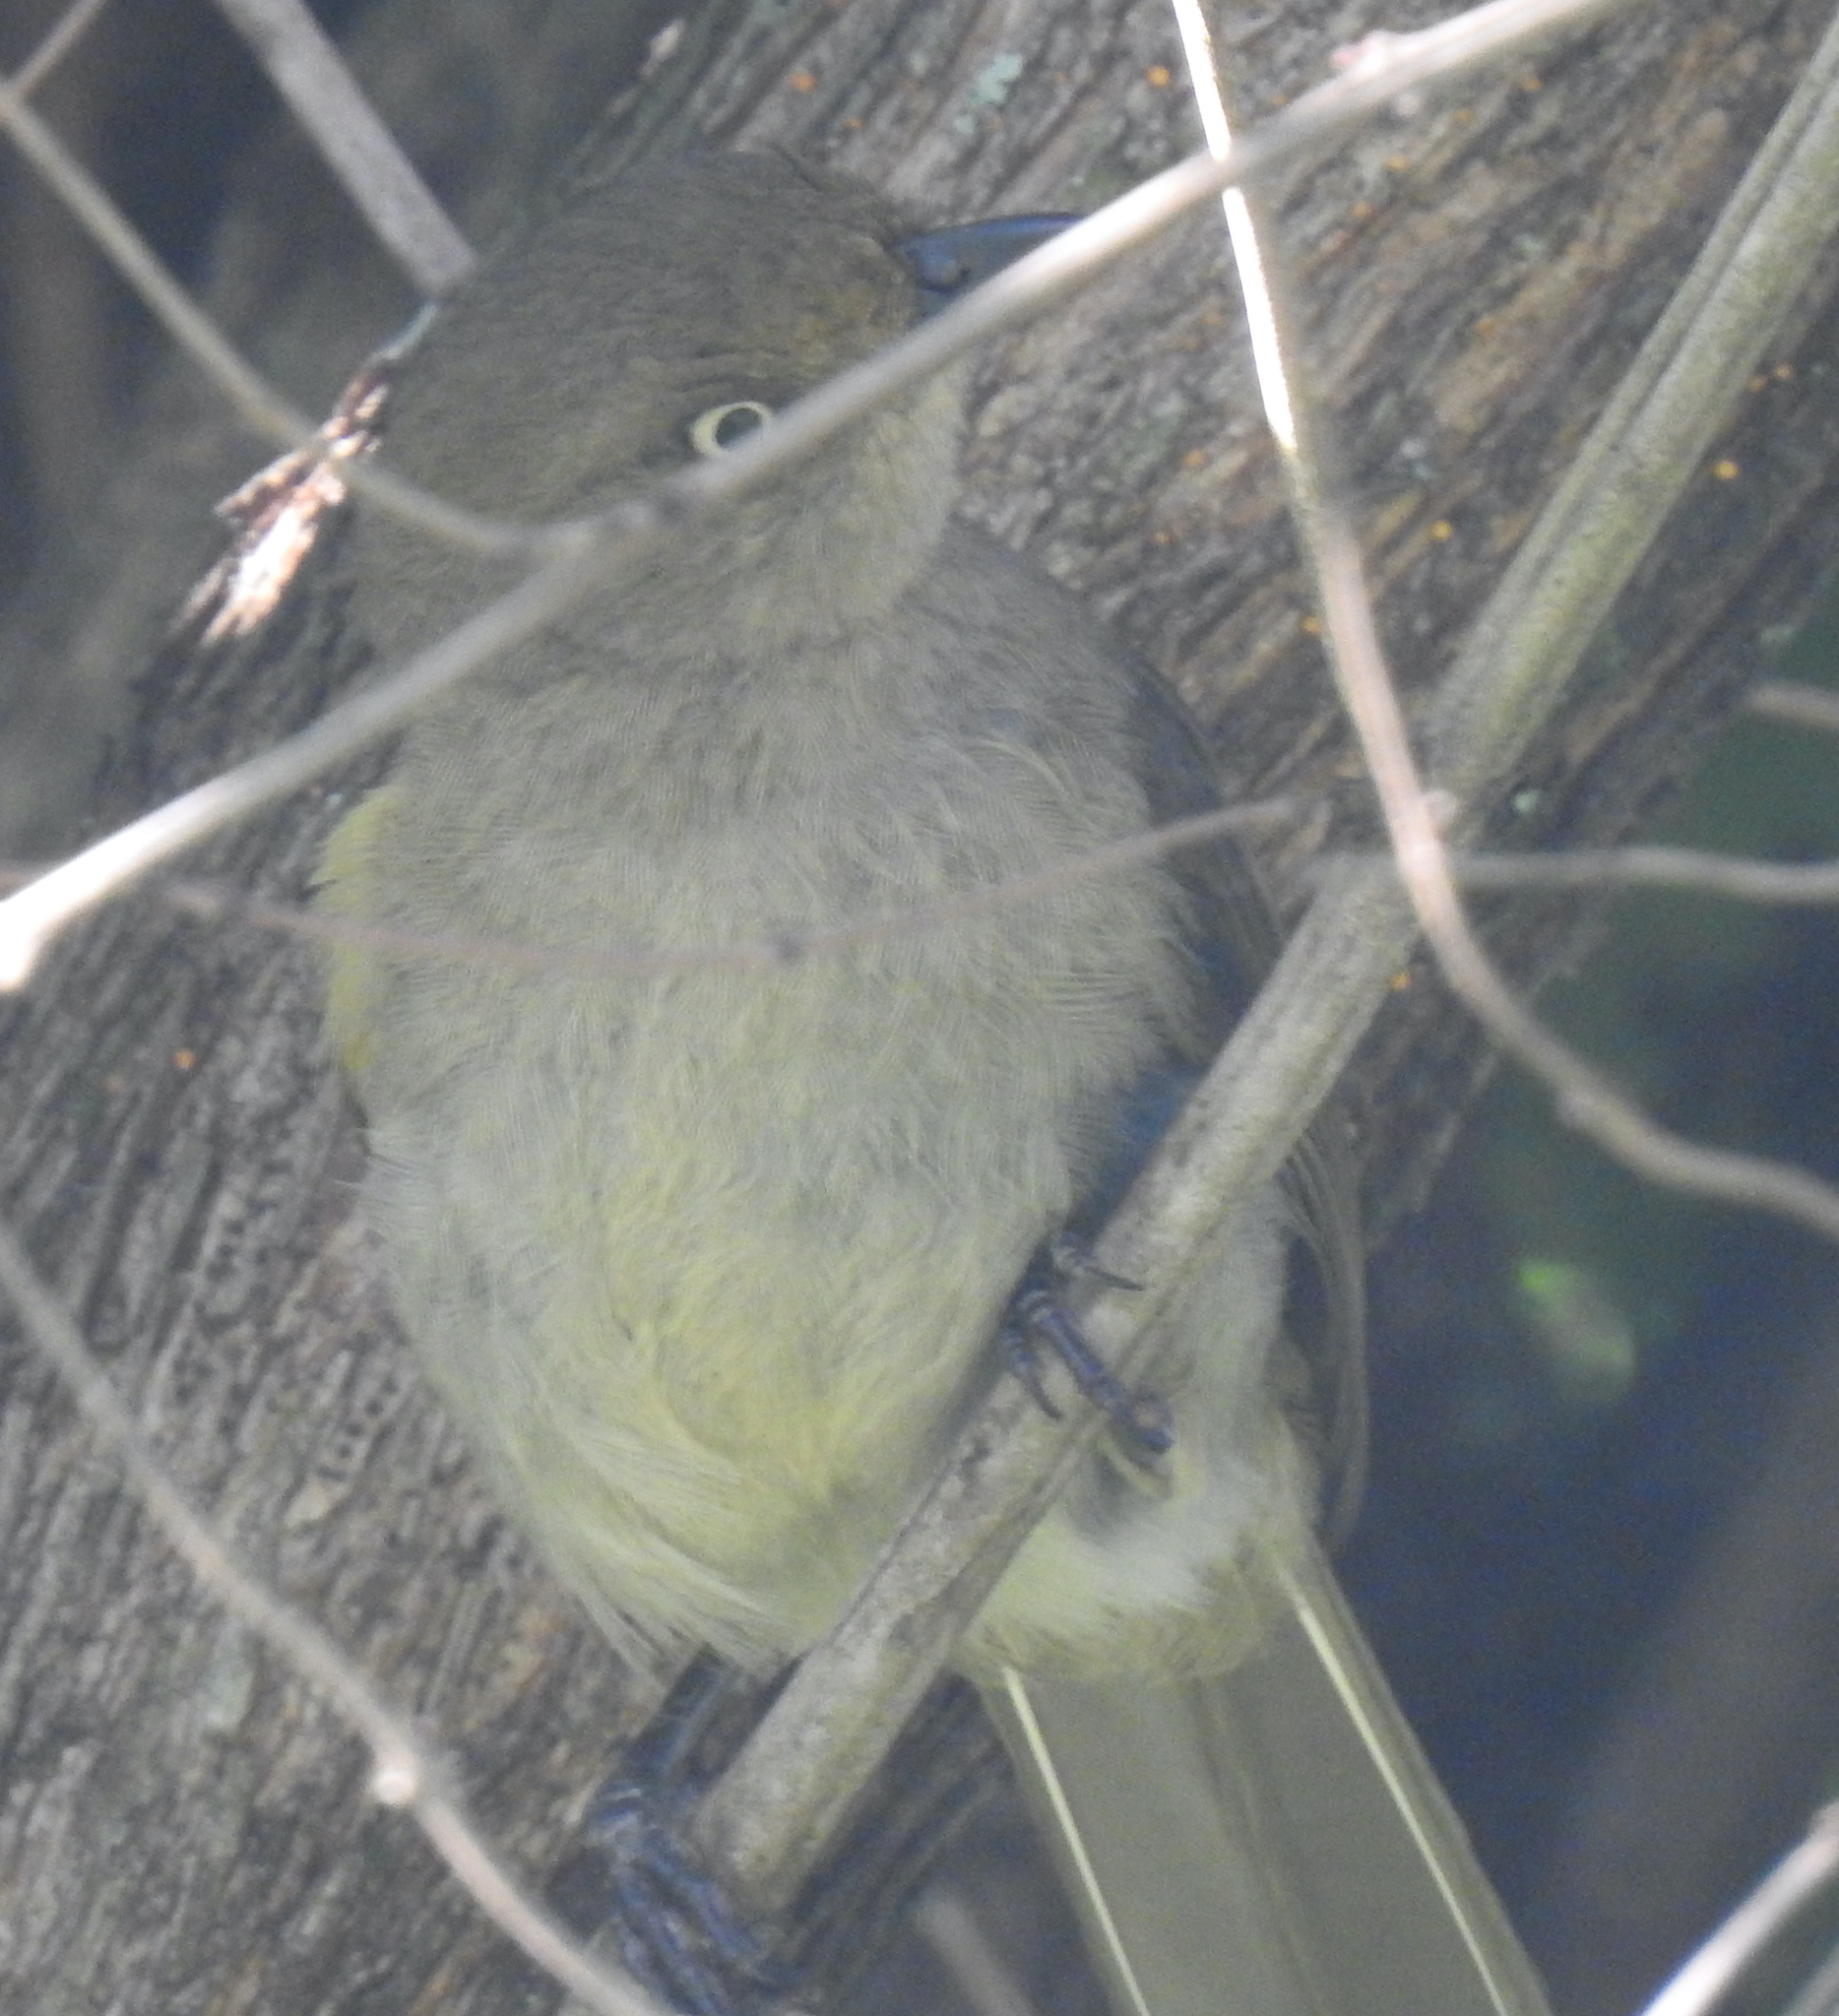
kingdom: Animalia
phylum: Chordata
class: Aves
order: Passeriformes
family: Pycnonotidae
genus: Andropadus
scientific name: Andropadus importunus
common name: Sombre greenbul
